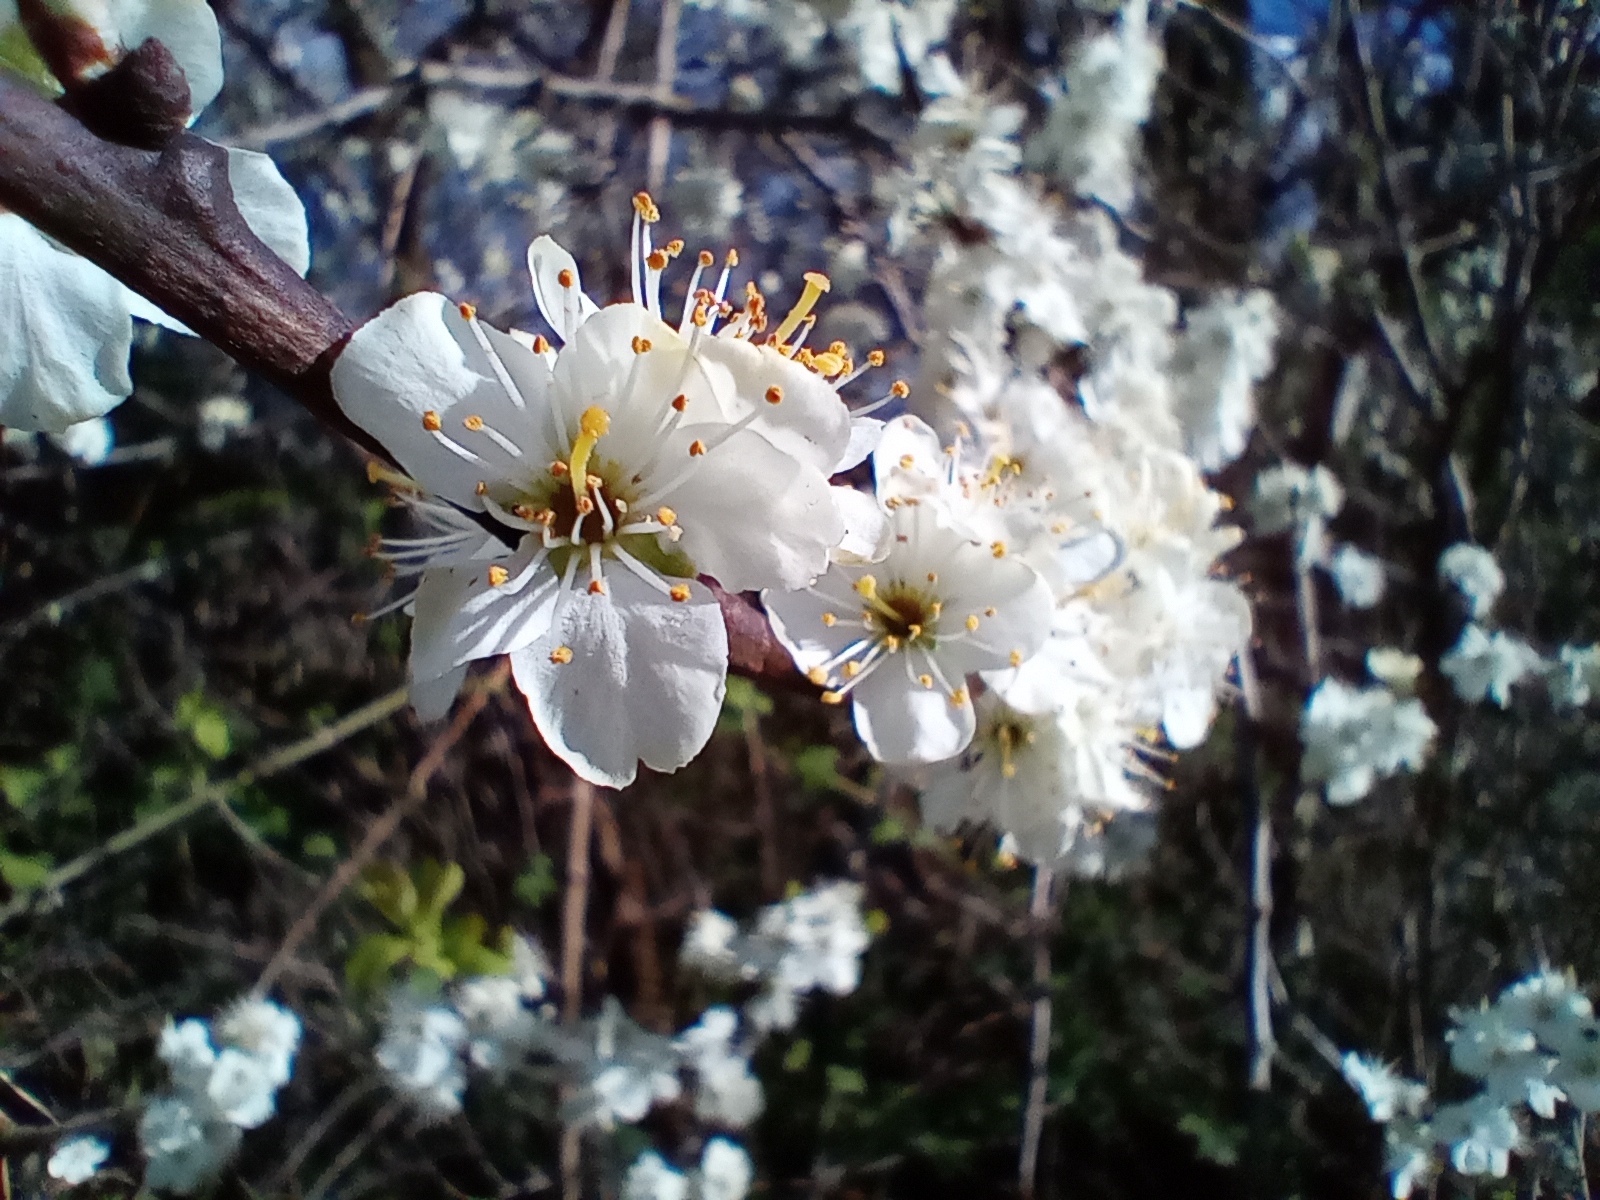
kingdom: Plantae
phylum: Tracheophyta
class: Magnoliopsida
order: Rosales
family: Rosaceae
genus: Prunus
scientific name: Prunus spinosa
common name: Blackthorn
